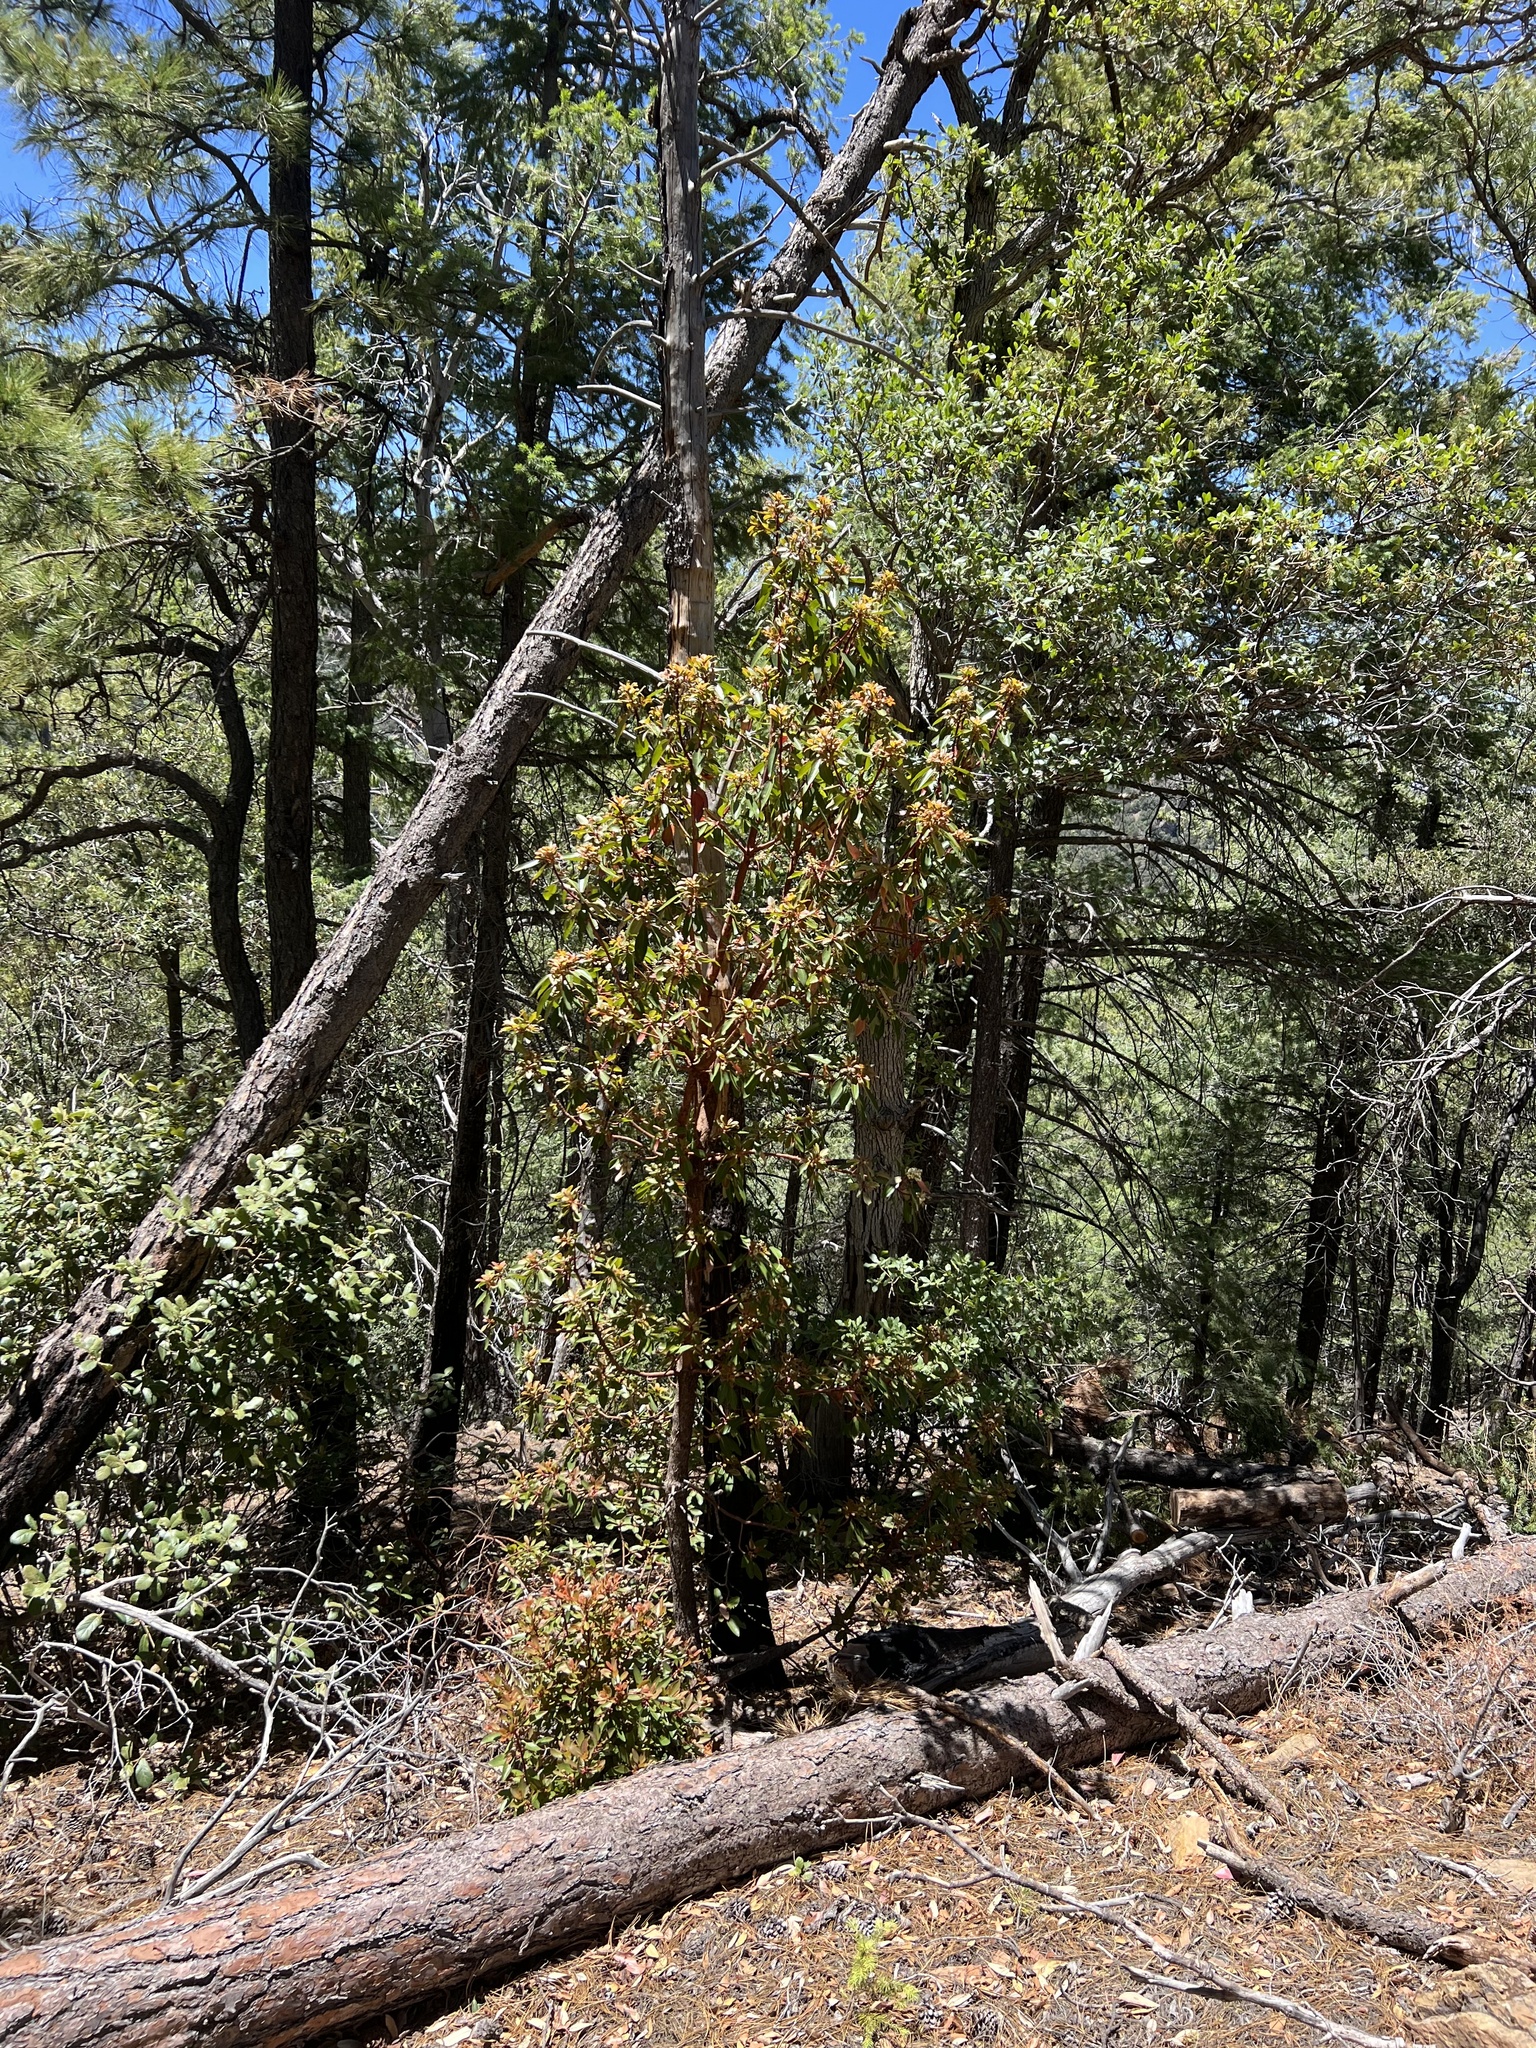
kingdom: Plantae
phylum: Tracheophyta
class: Magnoliopsida
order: Ericales
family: Ericaceae
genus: Arbutus
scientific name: Arbutus arizonica
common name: Arizona madrone
